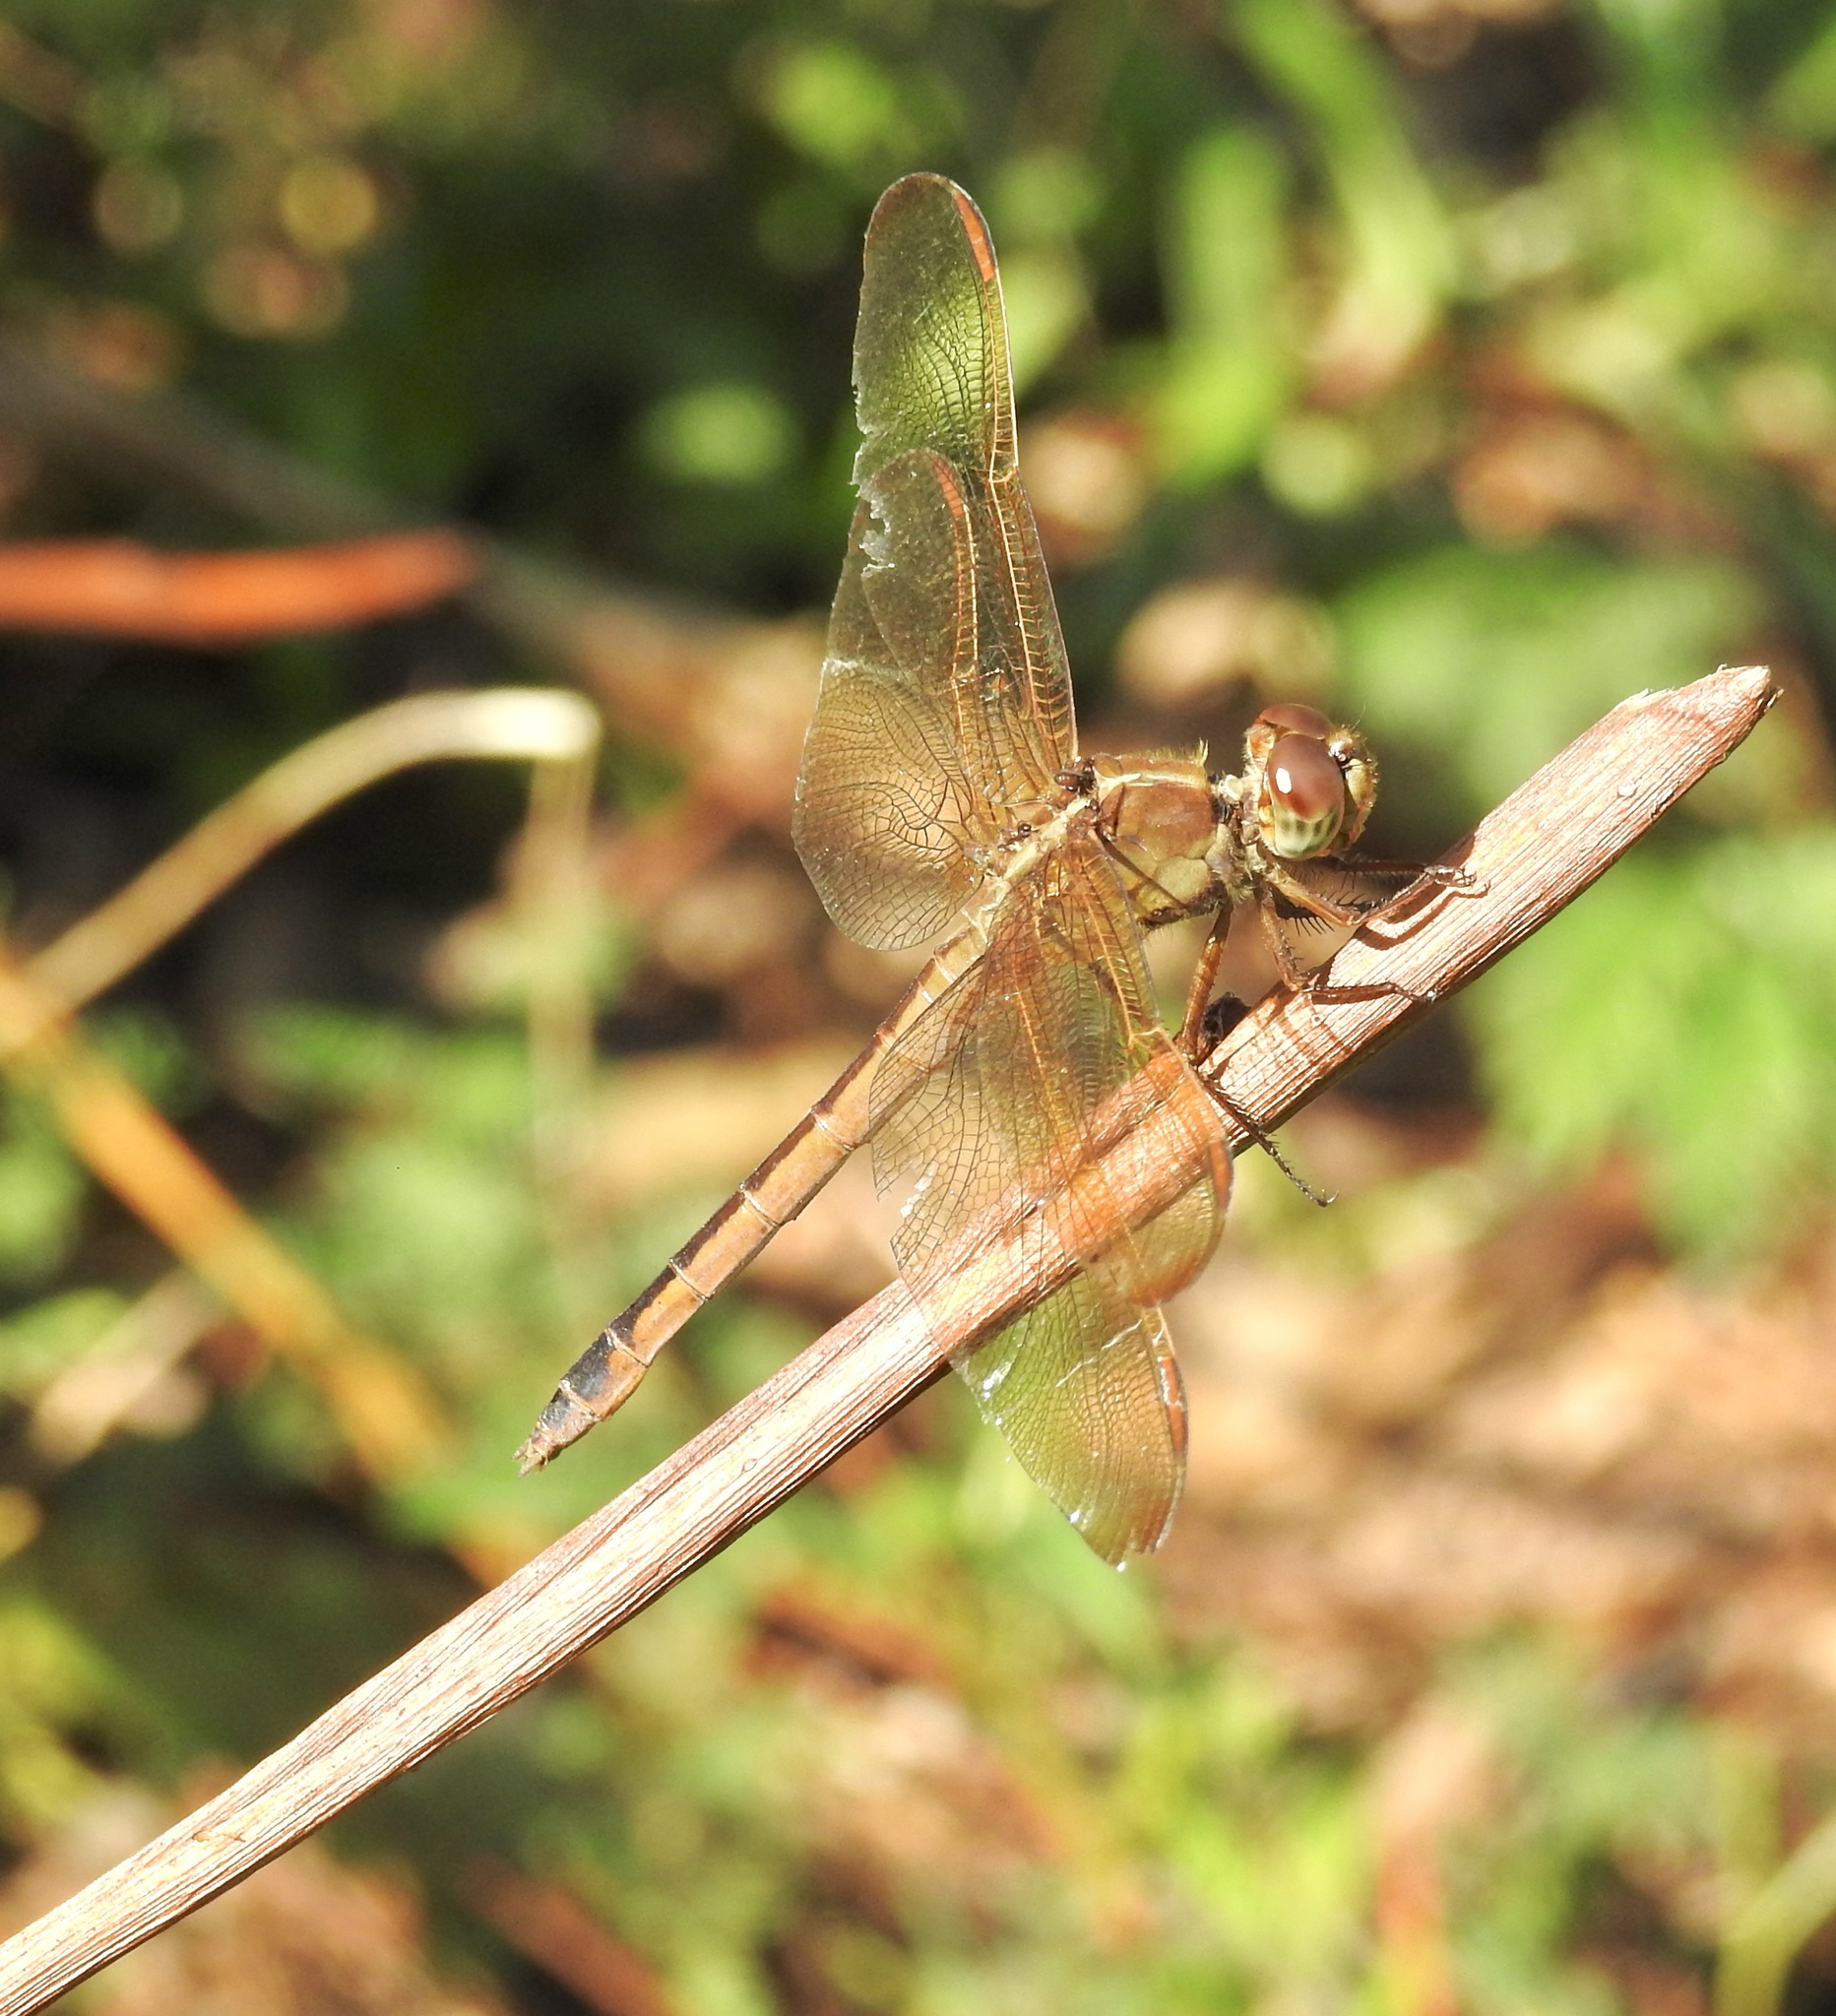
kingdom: Animalia
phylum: Arthropoda
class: Insecta
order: Odonata
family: Libellulidae
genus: Libellula
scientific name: Libellula needhami
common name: Needham's skimmer
